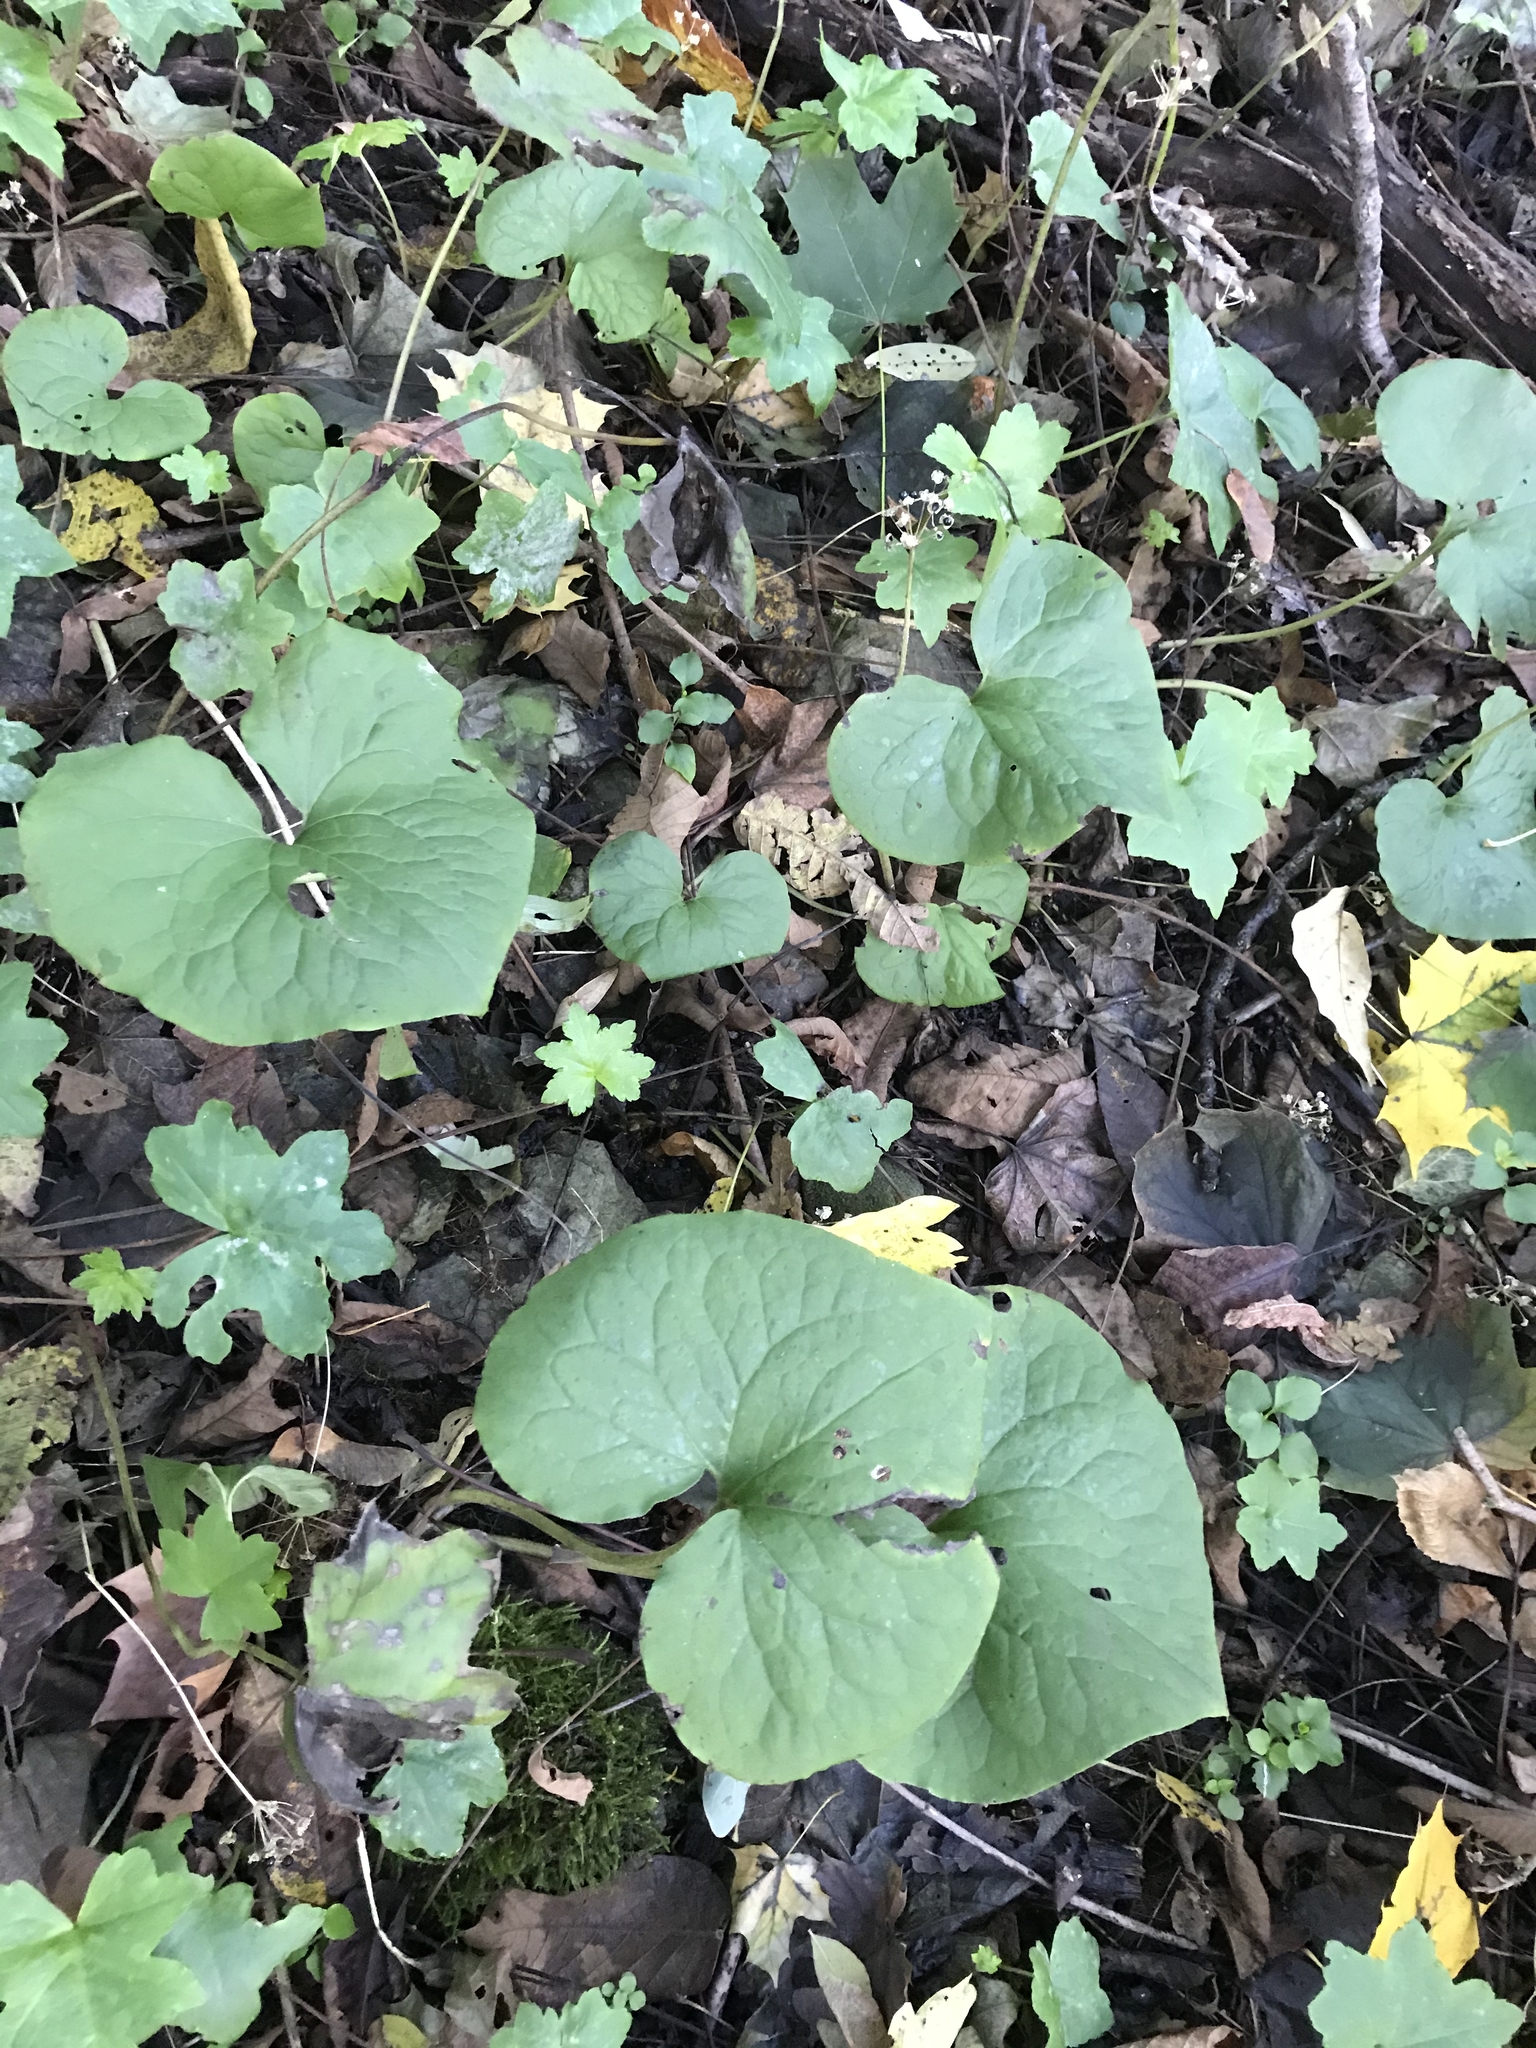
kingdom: Plantae
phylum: Tracheophyta
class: Magnoliopsida
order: Piperales
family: Aristolochiaceae
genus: Asarum
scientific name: Asarum canadense
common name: Wild ginger
